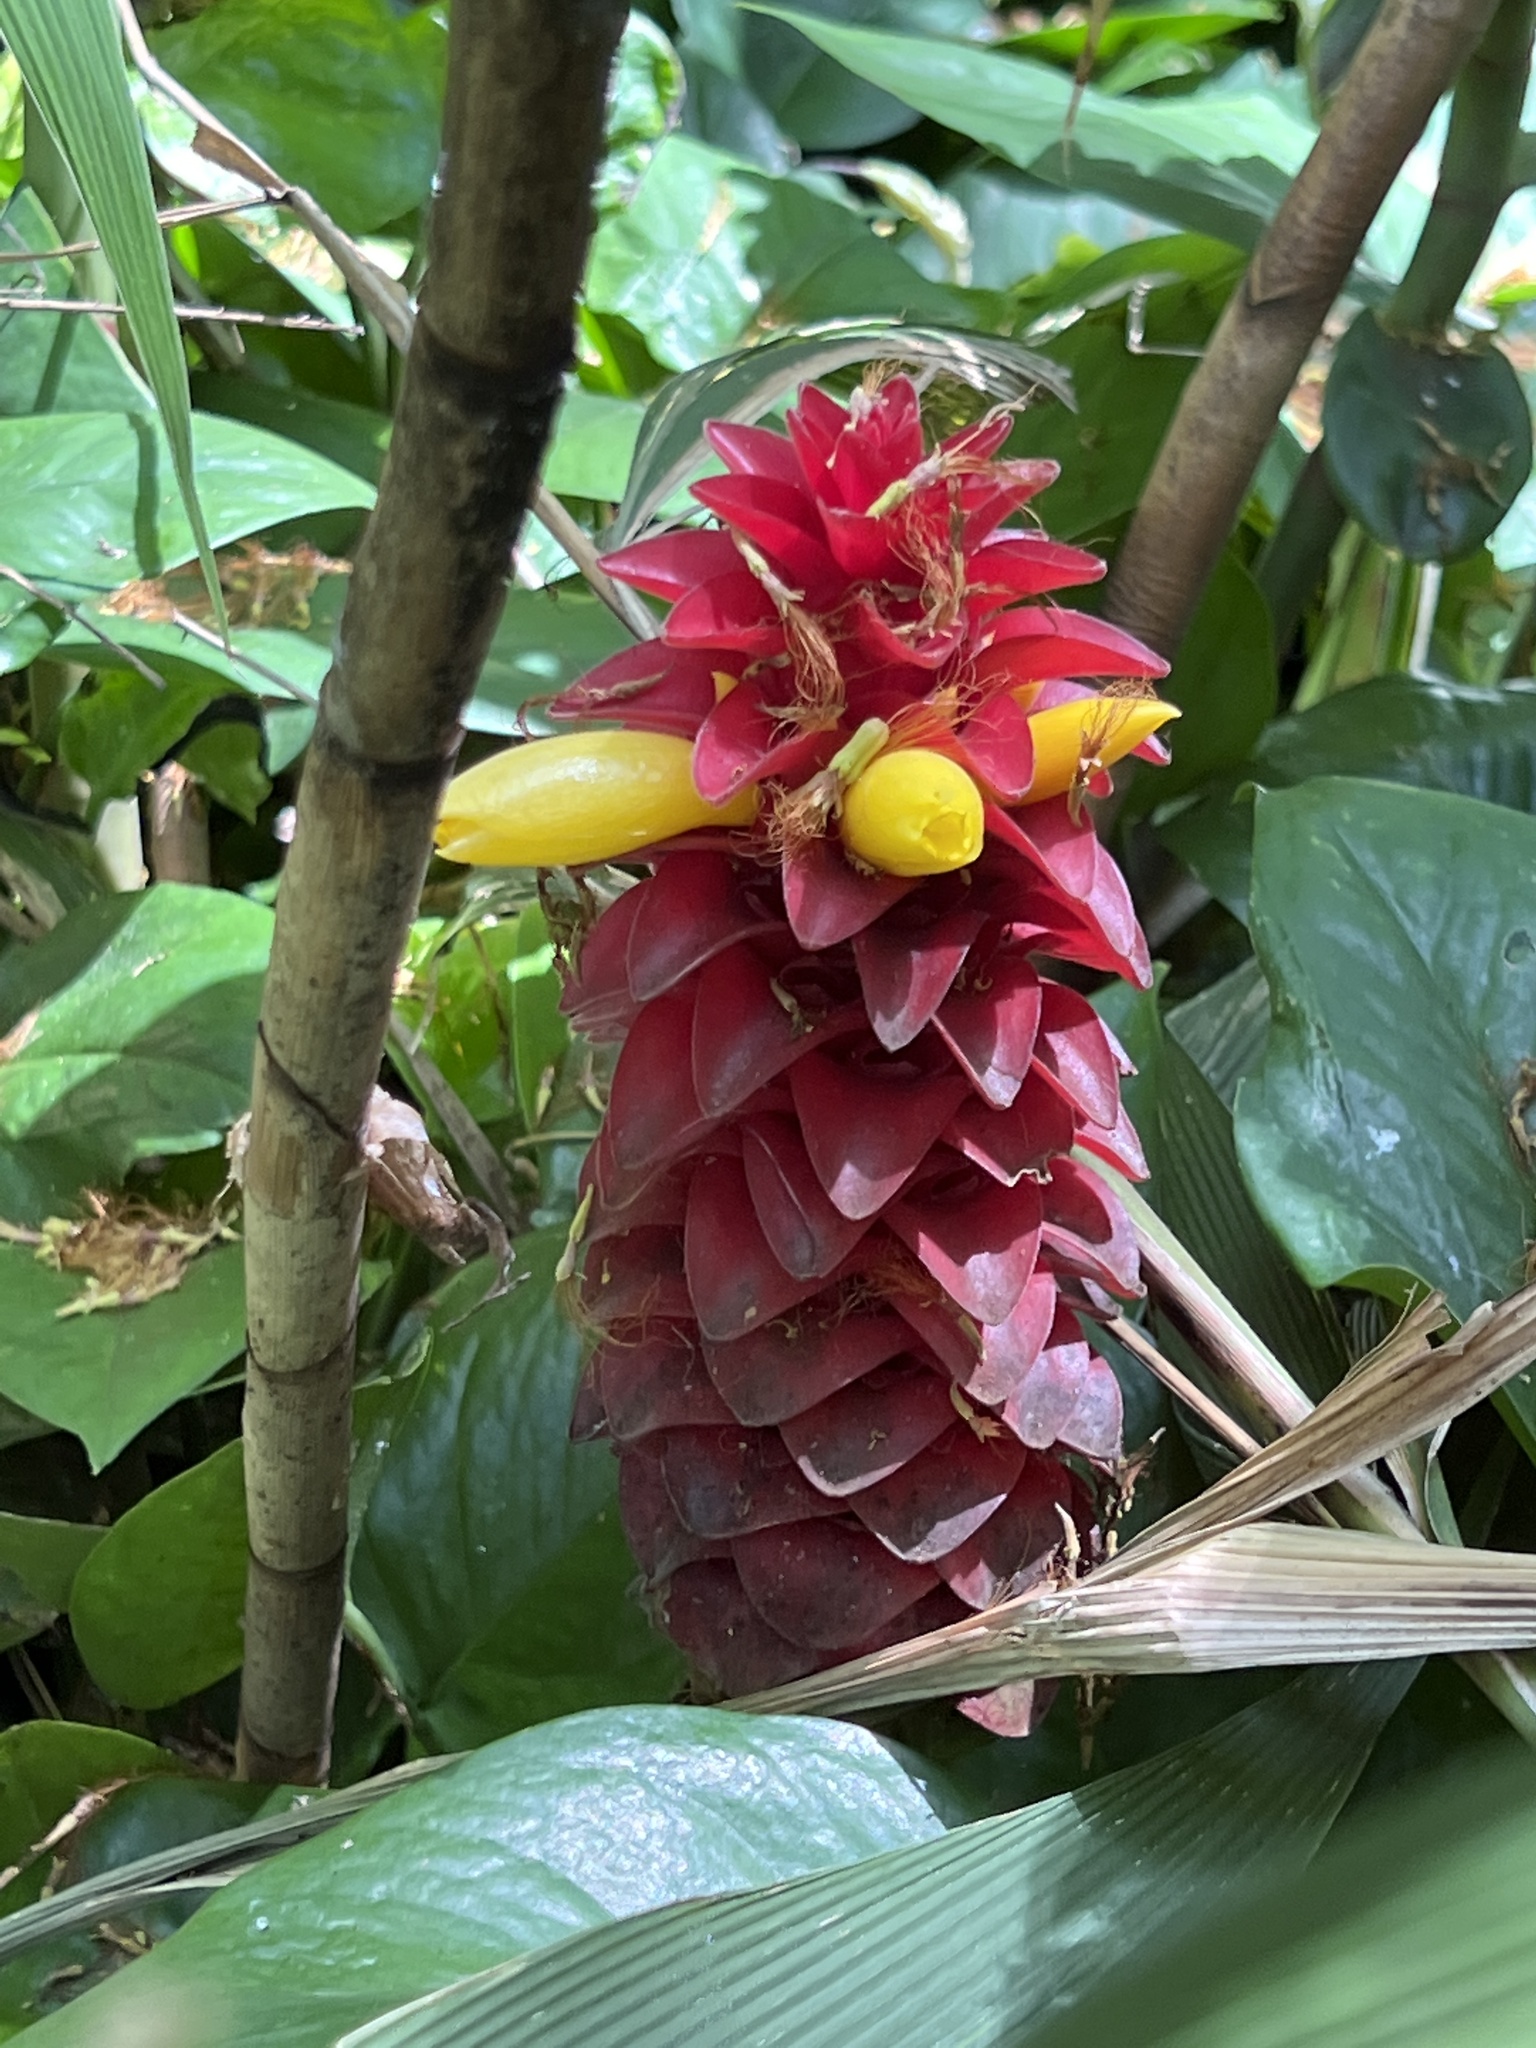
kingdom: Plantae
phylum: Tracheophyta
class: Liliopsida
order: Zingiberales
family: Costaceae
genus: Costus
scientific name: Costus comosus
